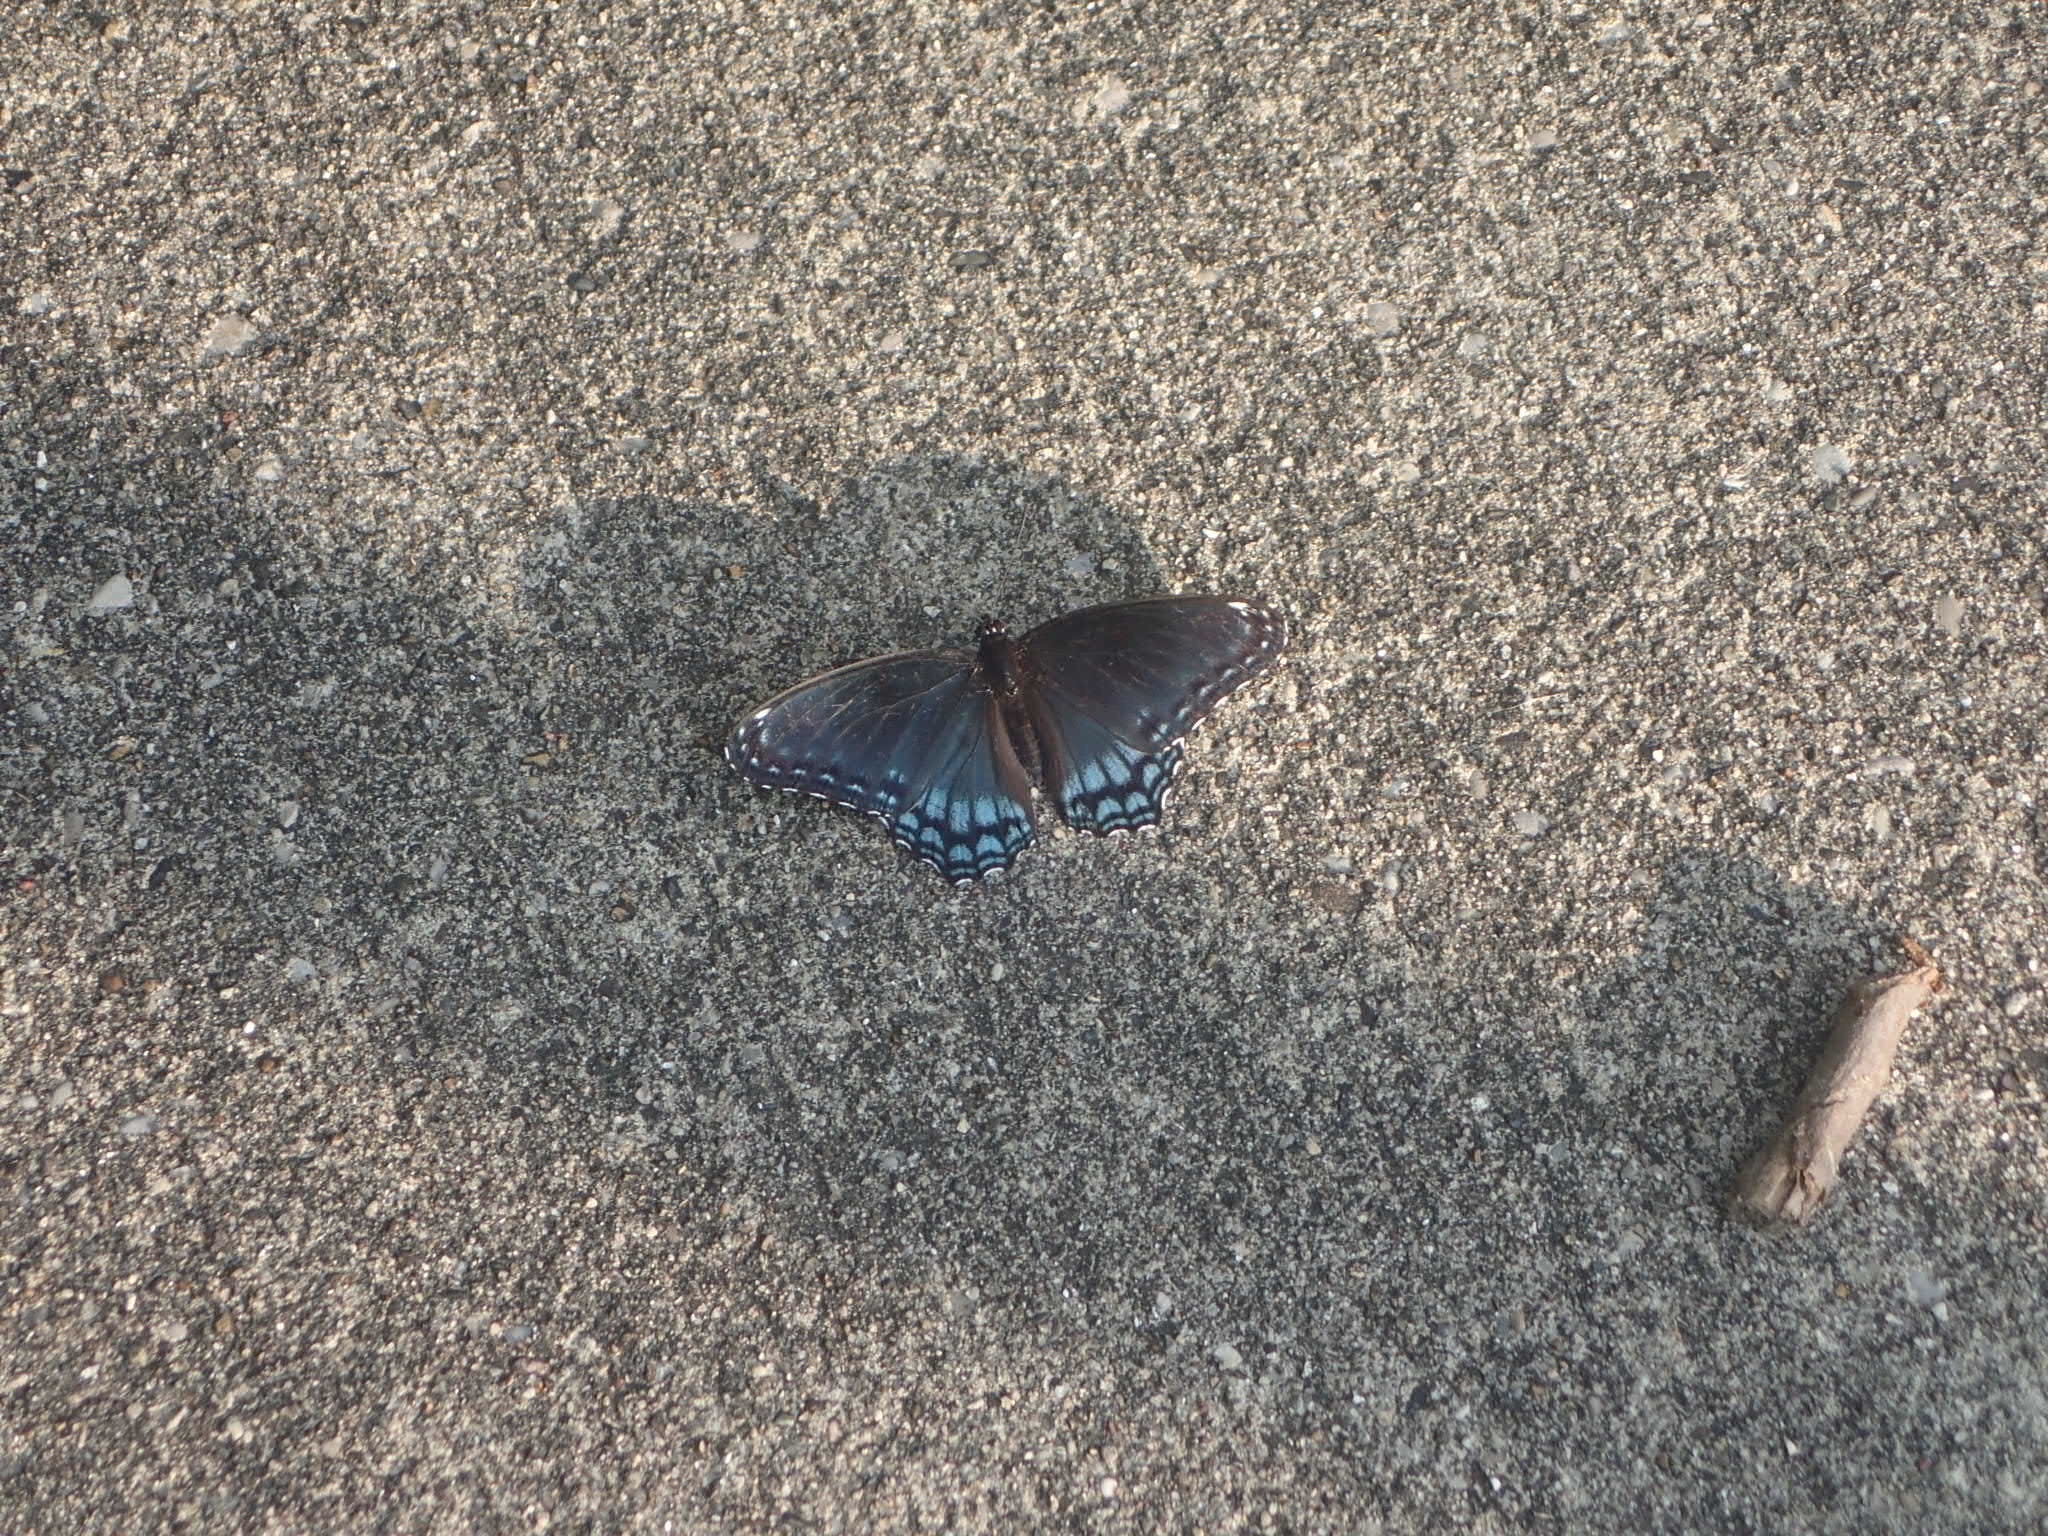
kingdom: Animalia
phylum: Arthropoda
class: Insecta
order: Lepidoptera
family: Nymphalidae
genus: Limenitis
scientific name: Limenitis arthemis
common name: Red-spotted admiral
